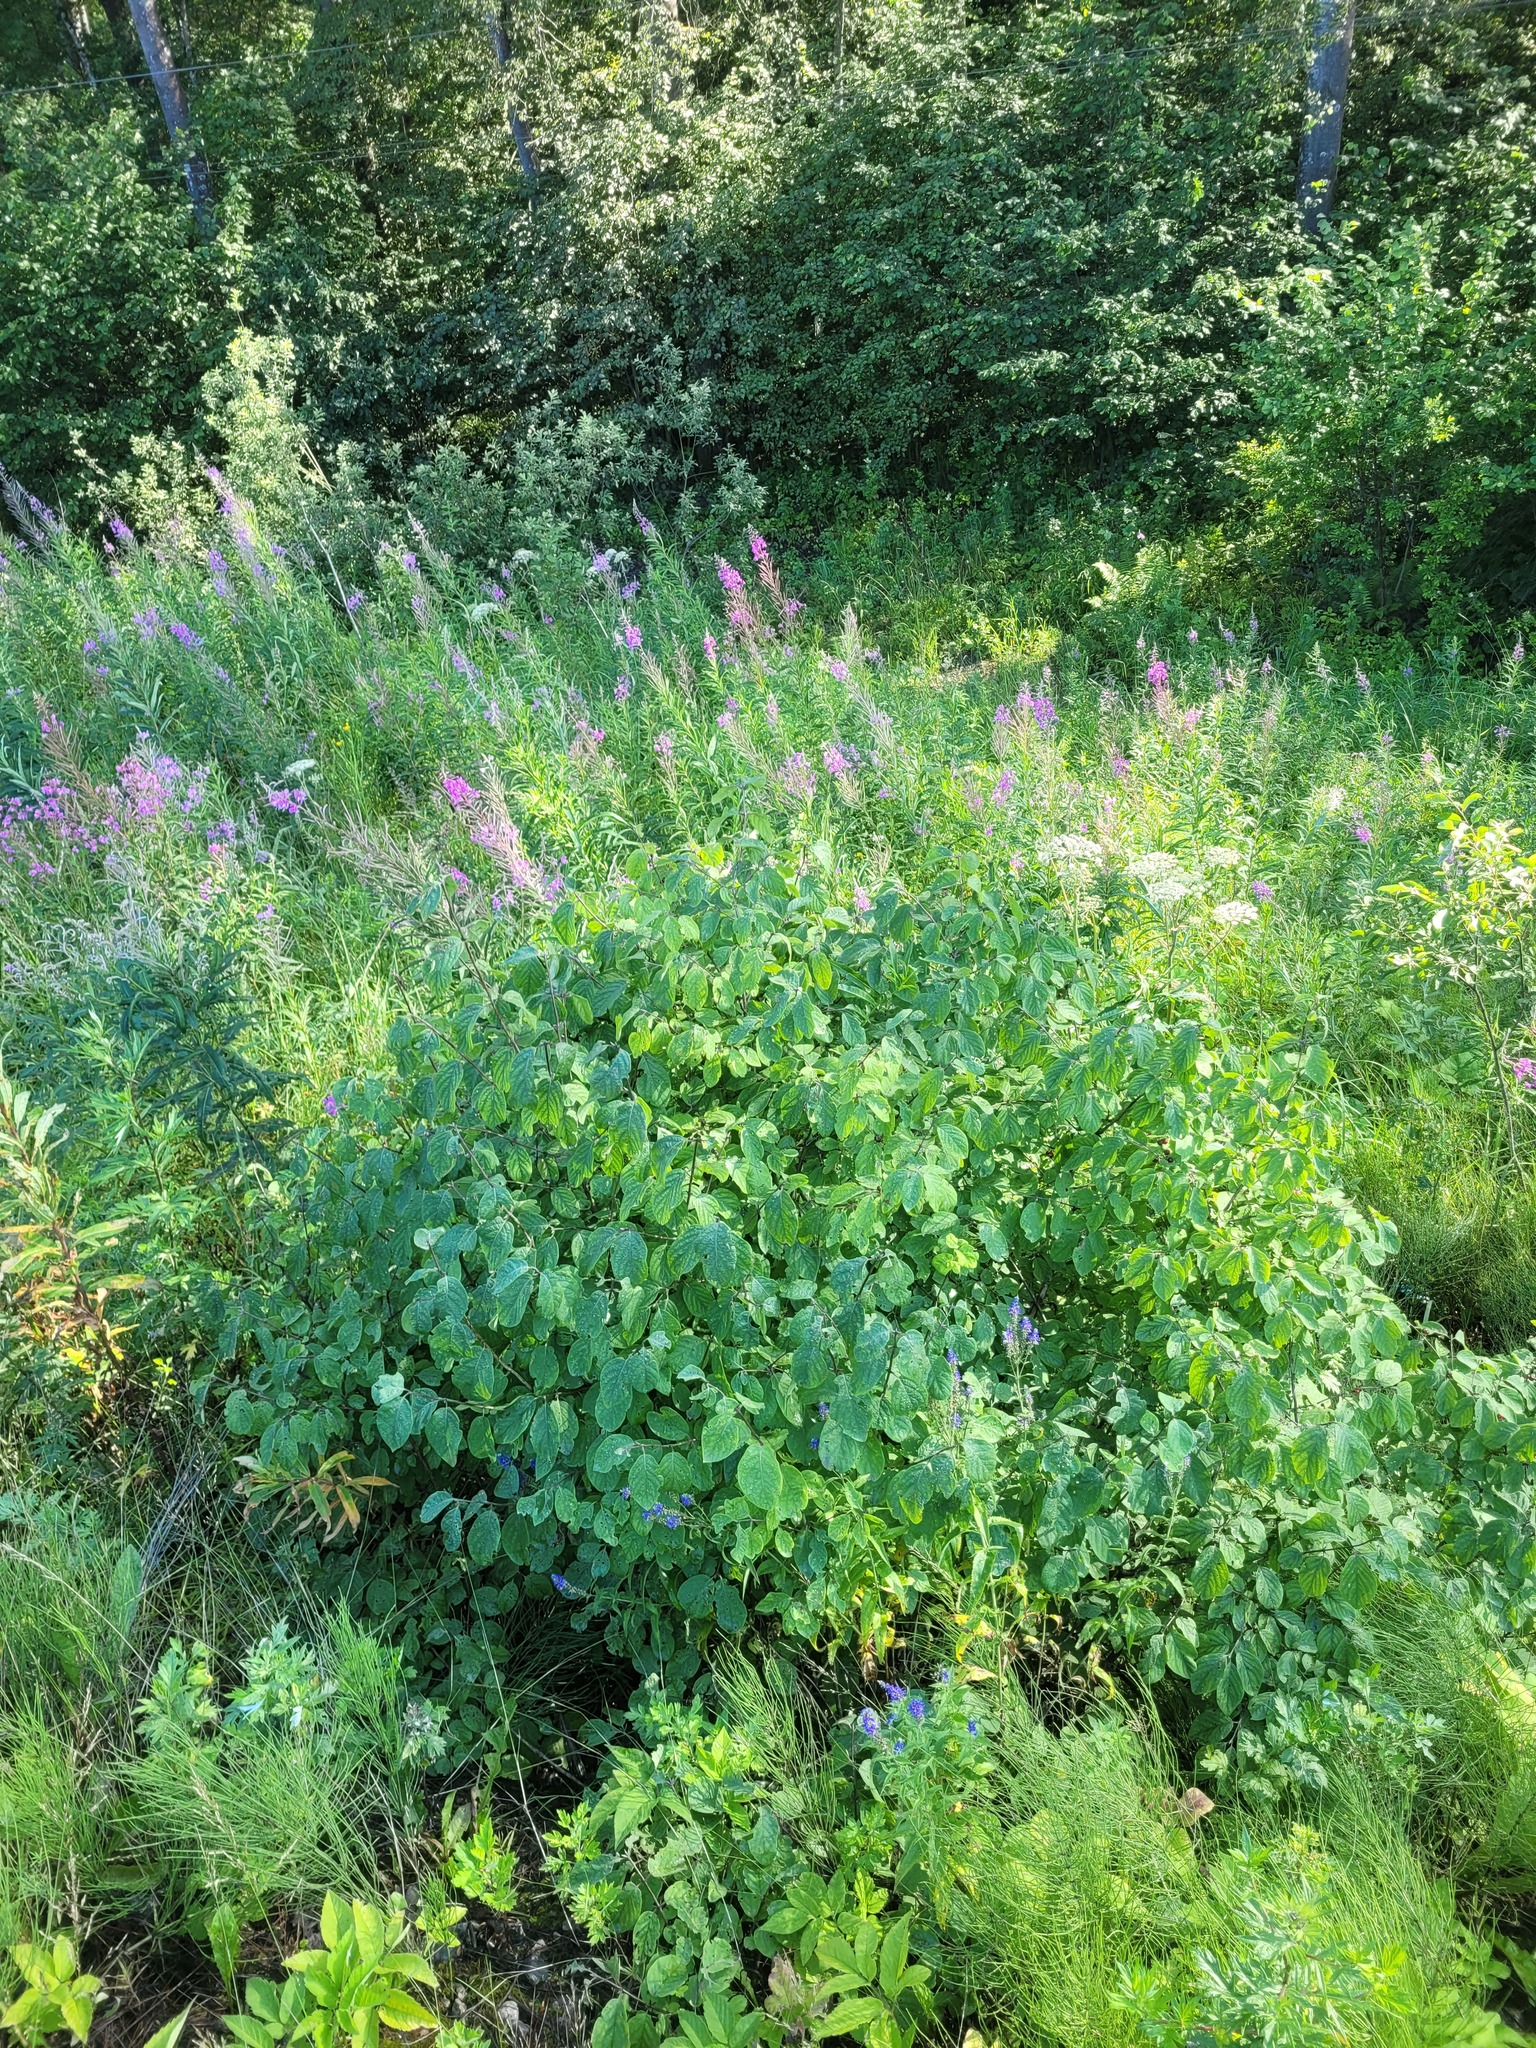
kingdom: Plantae
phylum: Tracheophyta
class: Magnoliopsida
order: Dipsacales
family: Caprifoliaceae
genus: Lonicera
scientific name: Lonicera xylosteum
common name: Fly honeysuckle
